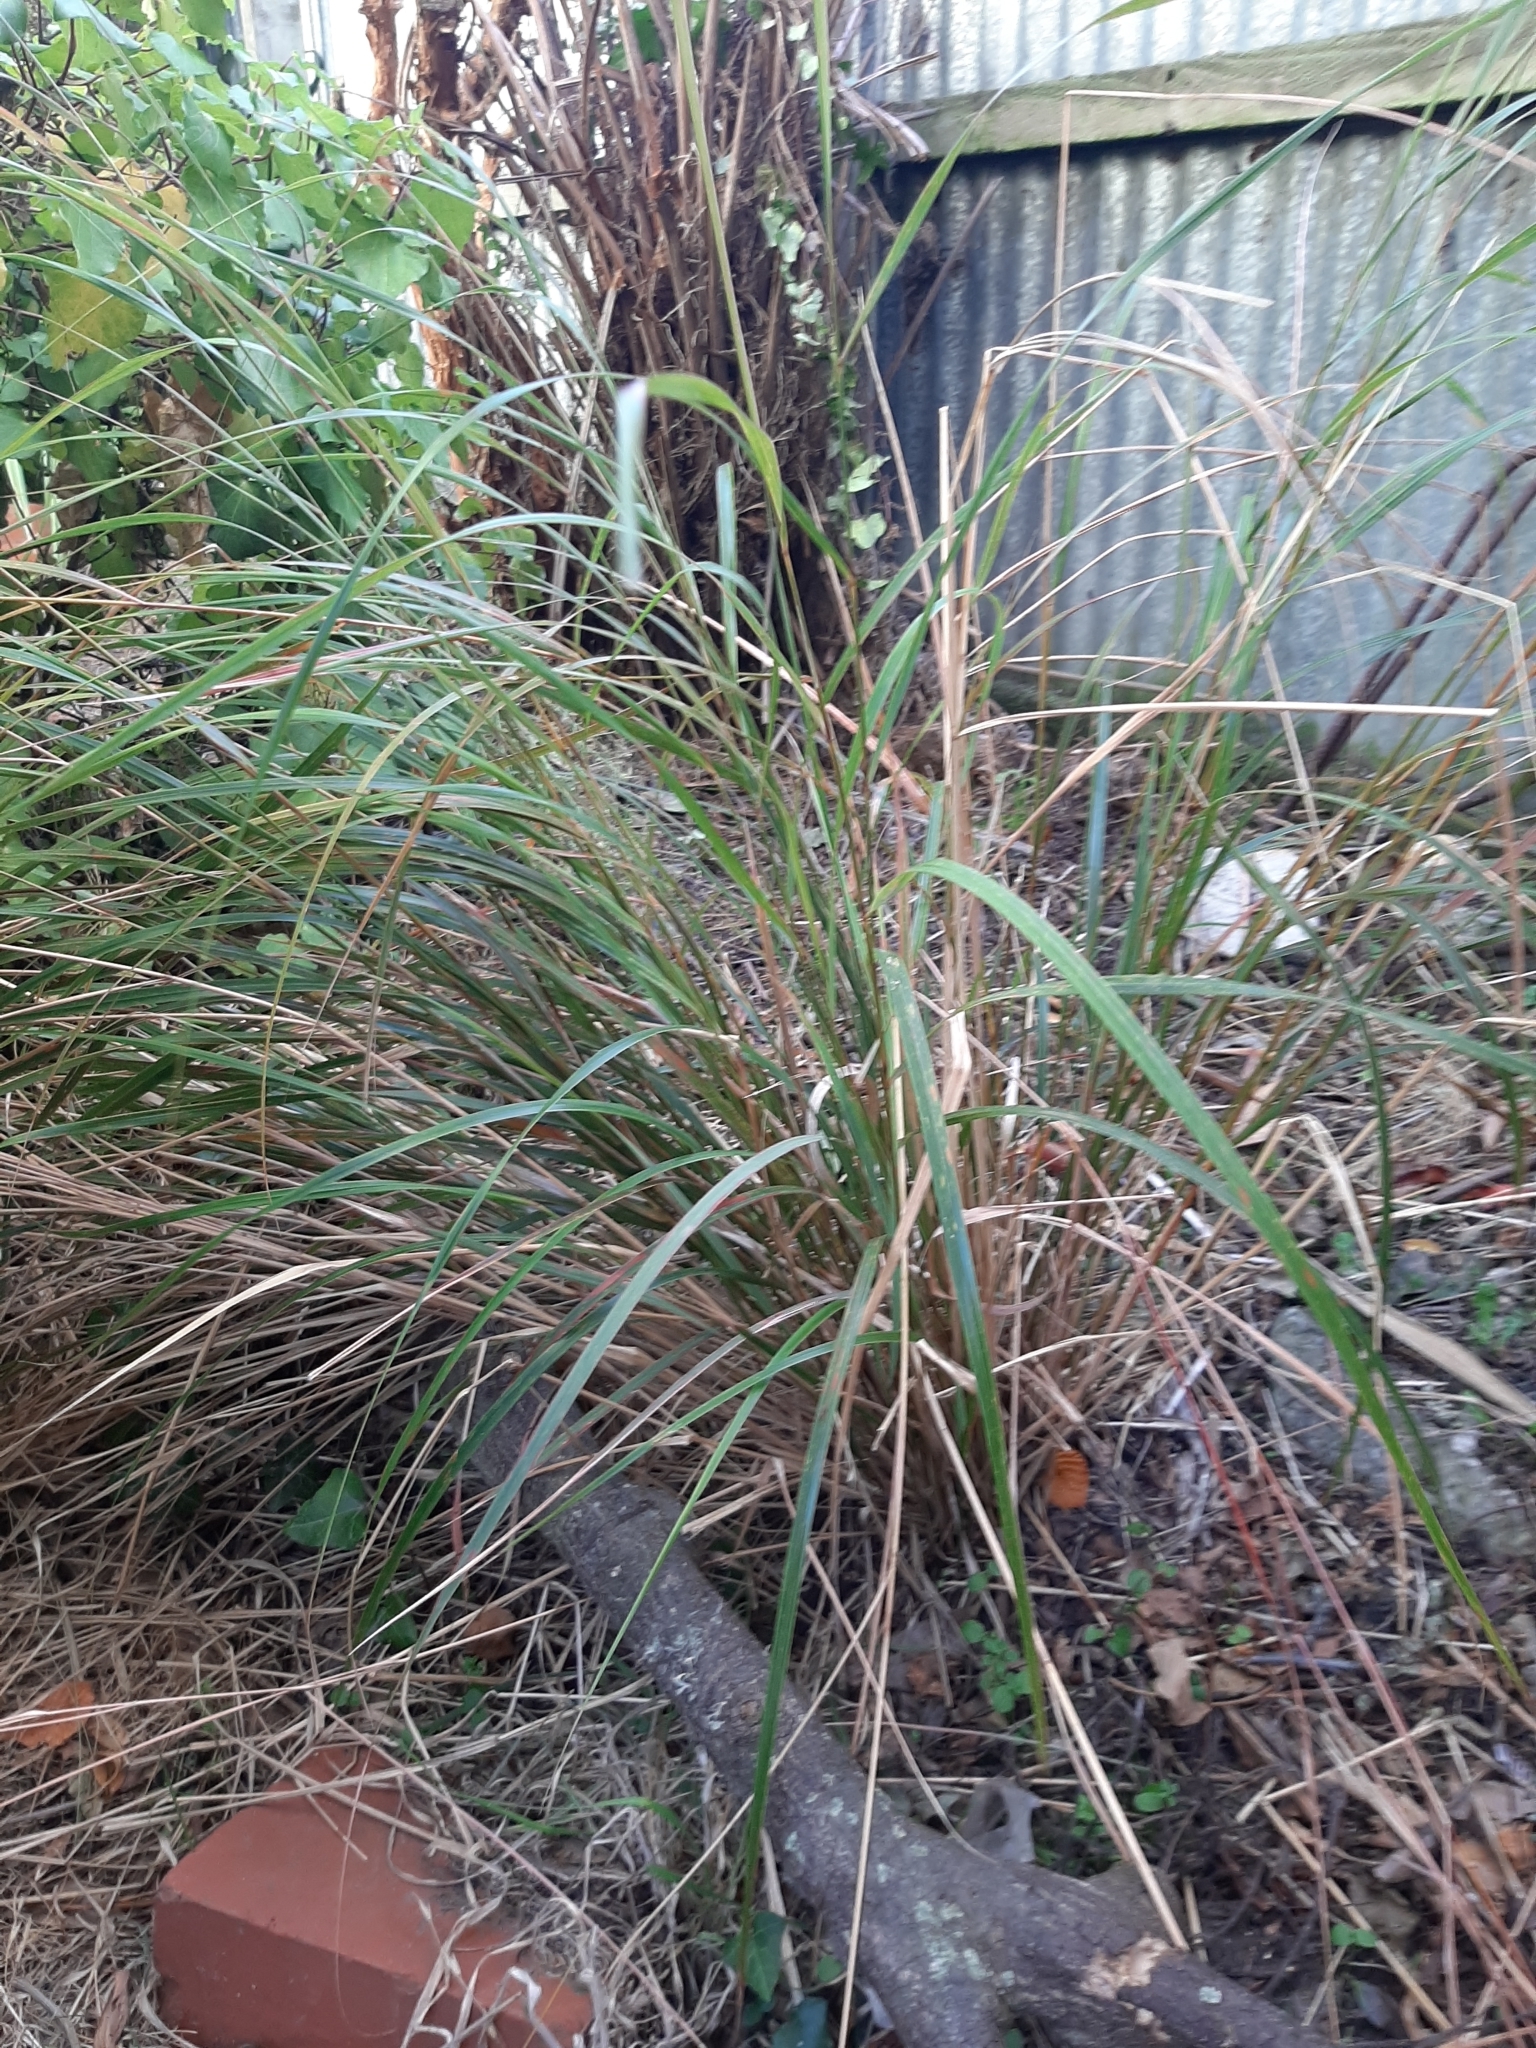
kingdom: Plantae
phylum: Tracheophyta
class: Liliopsida
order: Poales
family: Poaceae
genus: Anemanthele
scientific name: Anemanthele lessoniana
